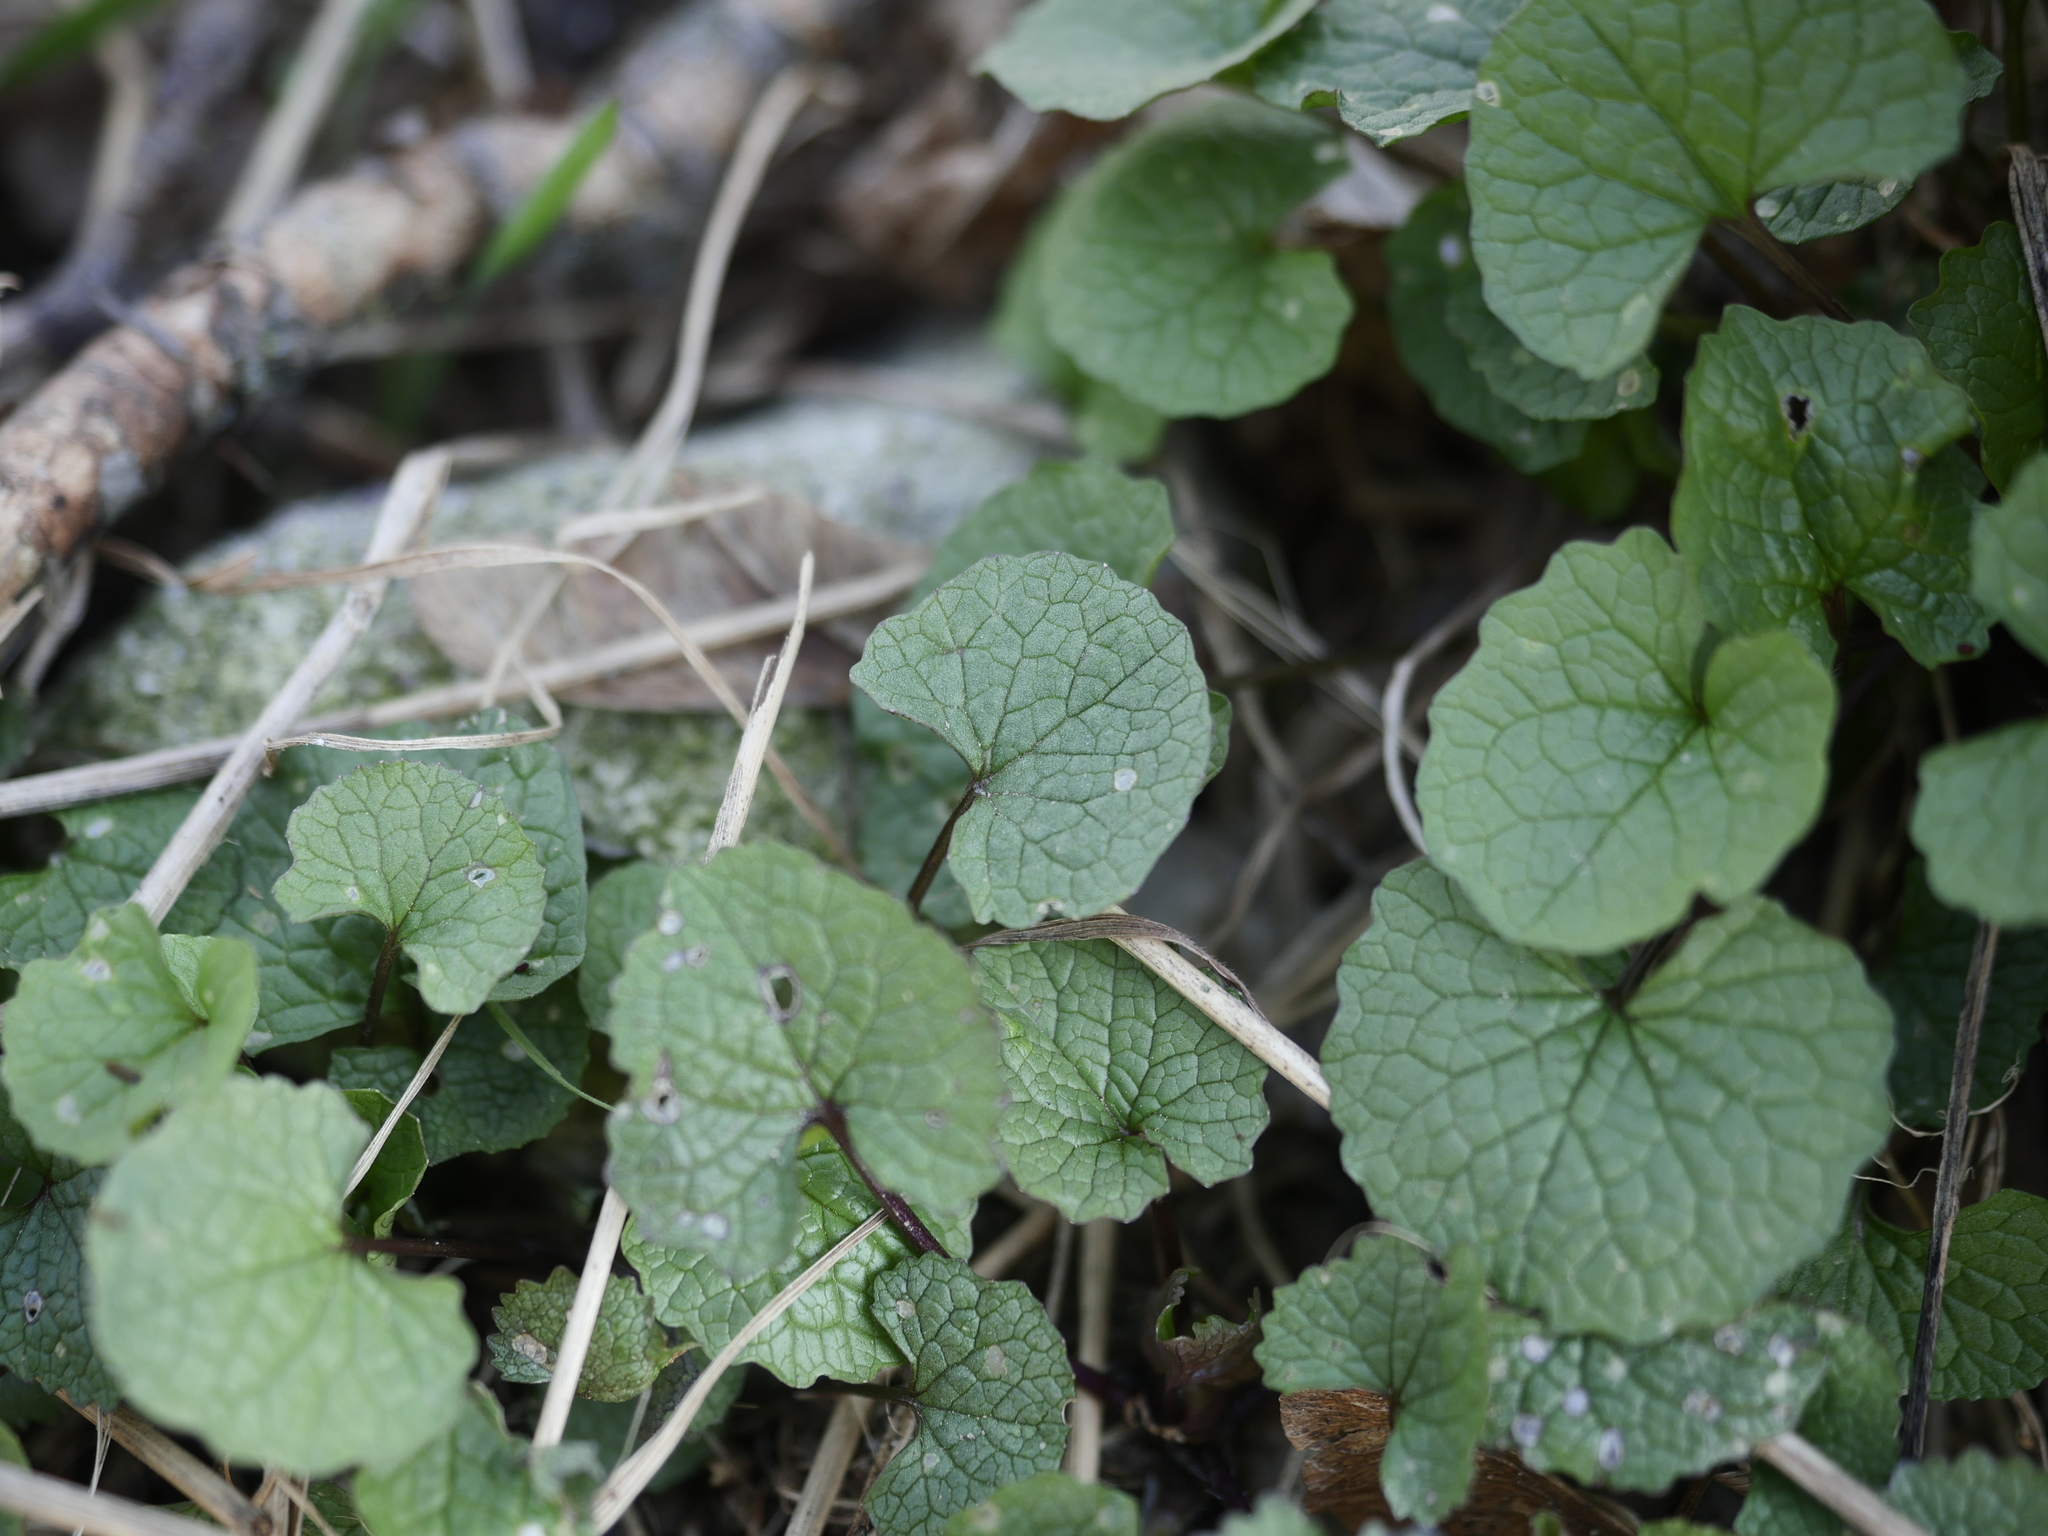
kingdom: Plantae
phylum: Tracheophyta
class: Magnoliopsida
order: Brassicales
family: Brassicaceae
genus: Alliaria
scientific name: Alliaria petiolata
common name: Garlic mustard
